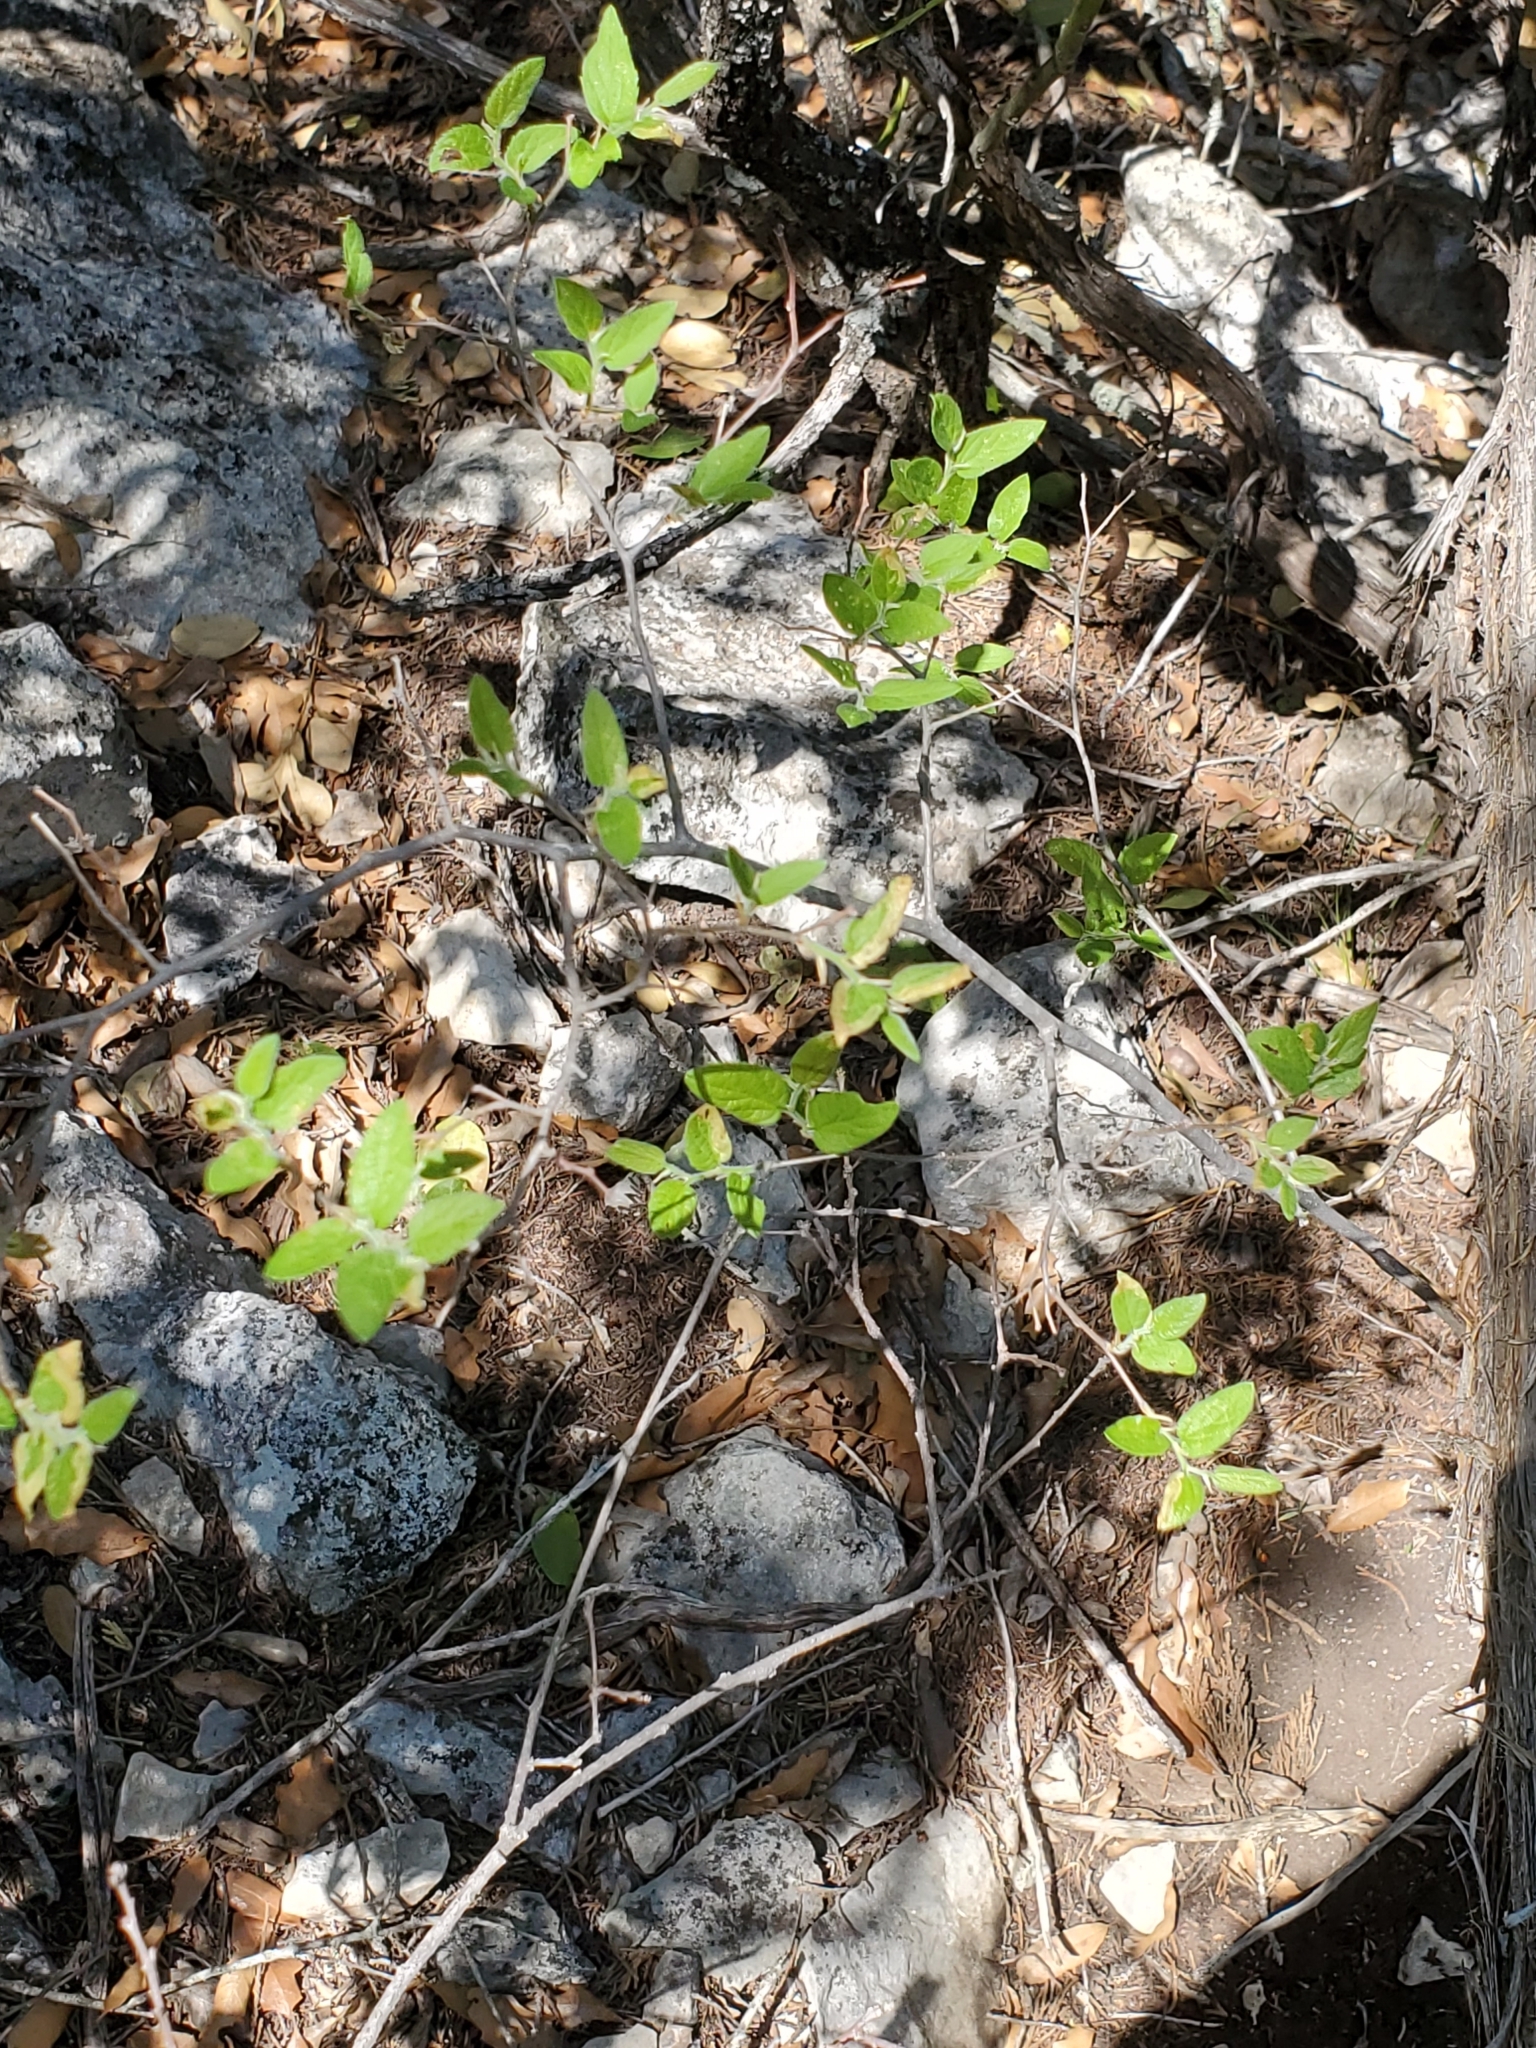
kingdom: Plantae
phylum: Tracheophyta
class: Magnoliopsida
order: Rosales
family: Cannabaceae
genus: Celtis
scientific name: Celtis reticulata
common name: Netleaf hackberry
